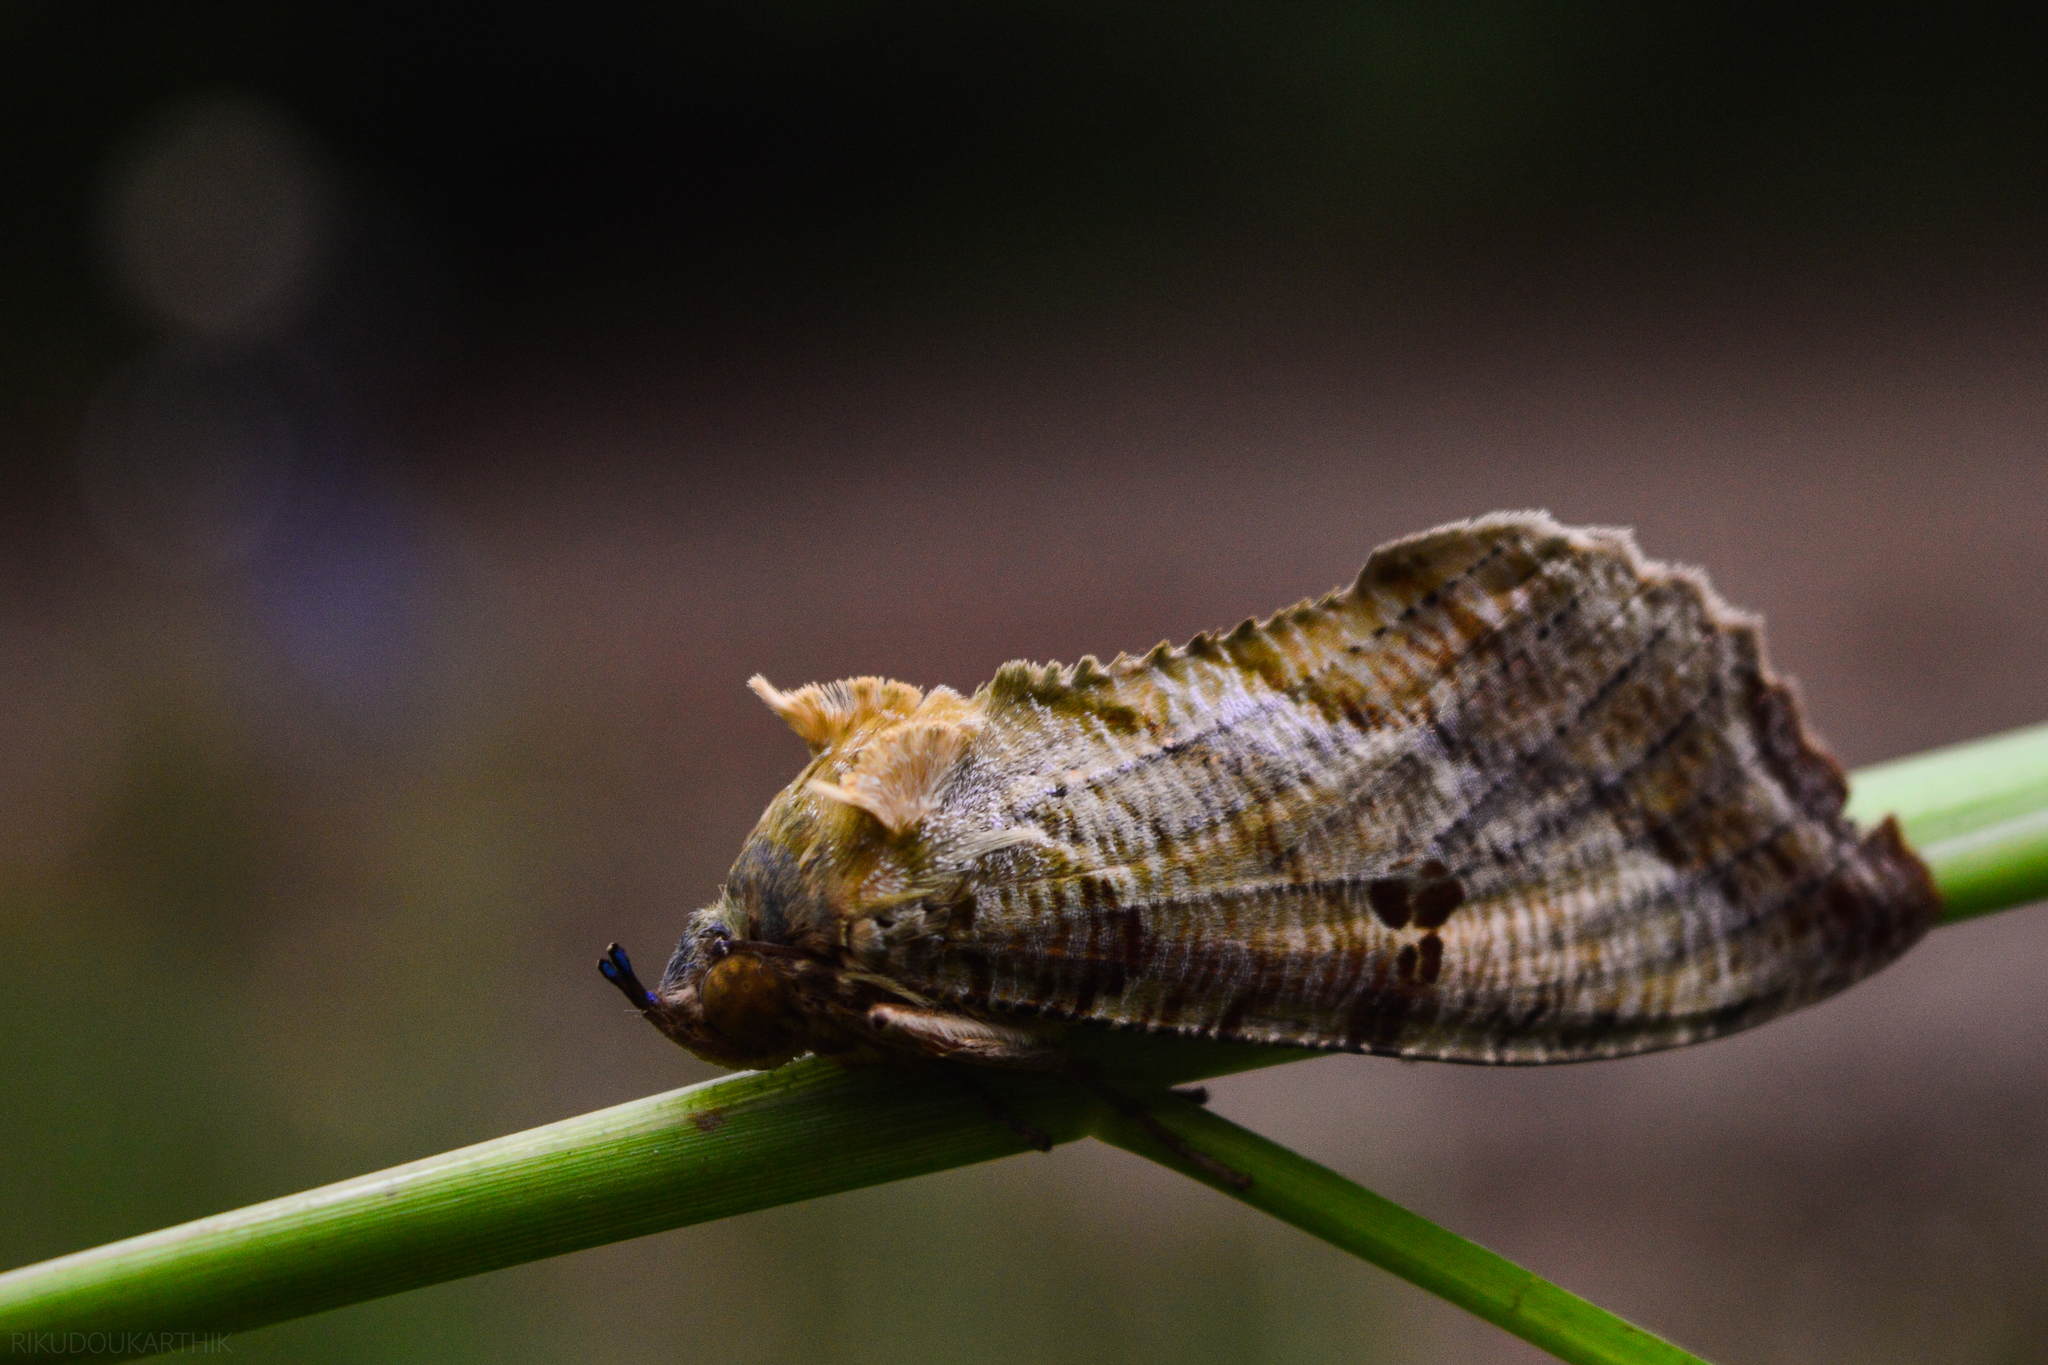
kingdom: Animalia
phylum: Arthropoda
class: Insecta
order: Lepidoptera
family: Erebidae
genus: Eudocima
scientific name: Eudocima materna
